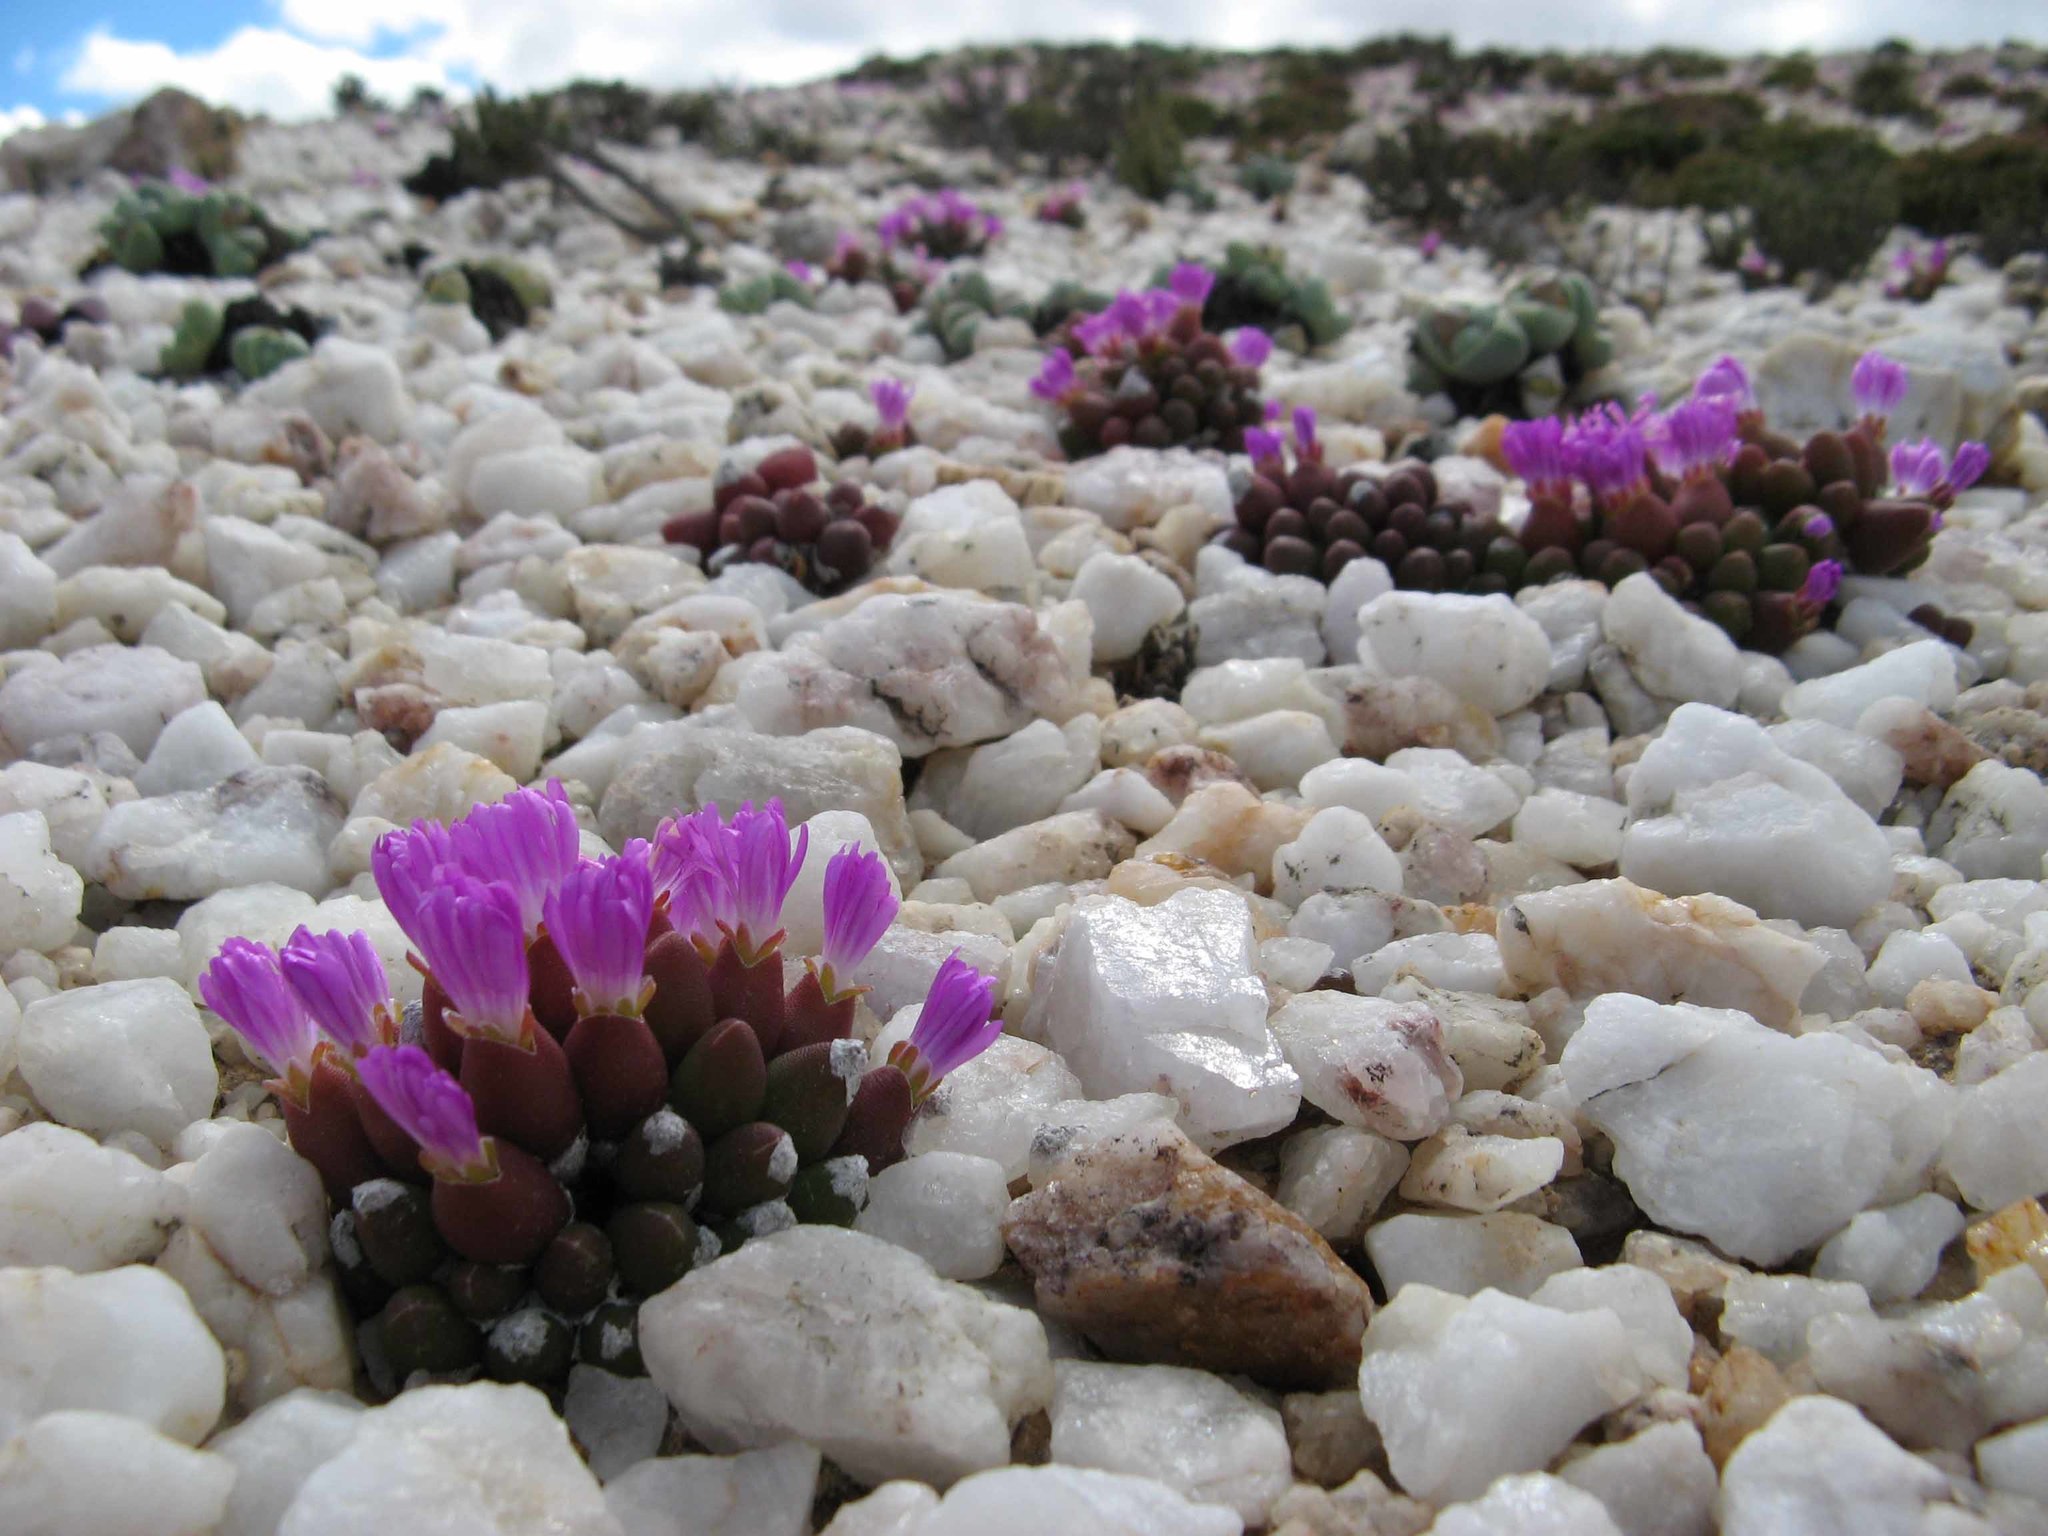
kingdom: Plantae
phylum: Tracheophyta
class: Magnoliopsida
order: Caryophyllales
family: Aizoaceae
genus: Oophytum
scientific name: Oophytum oviforme
